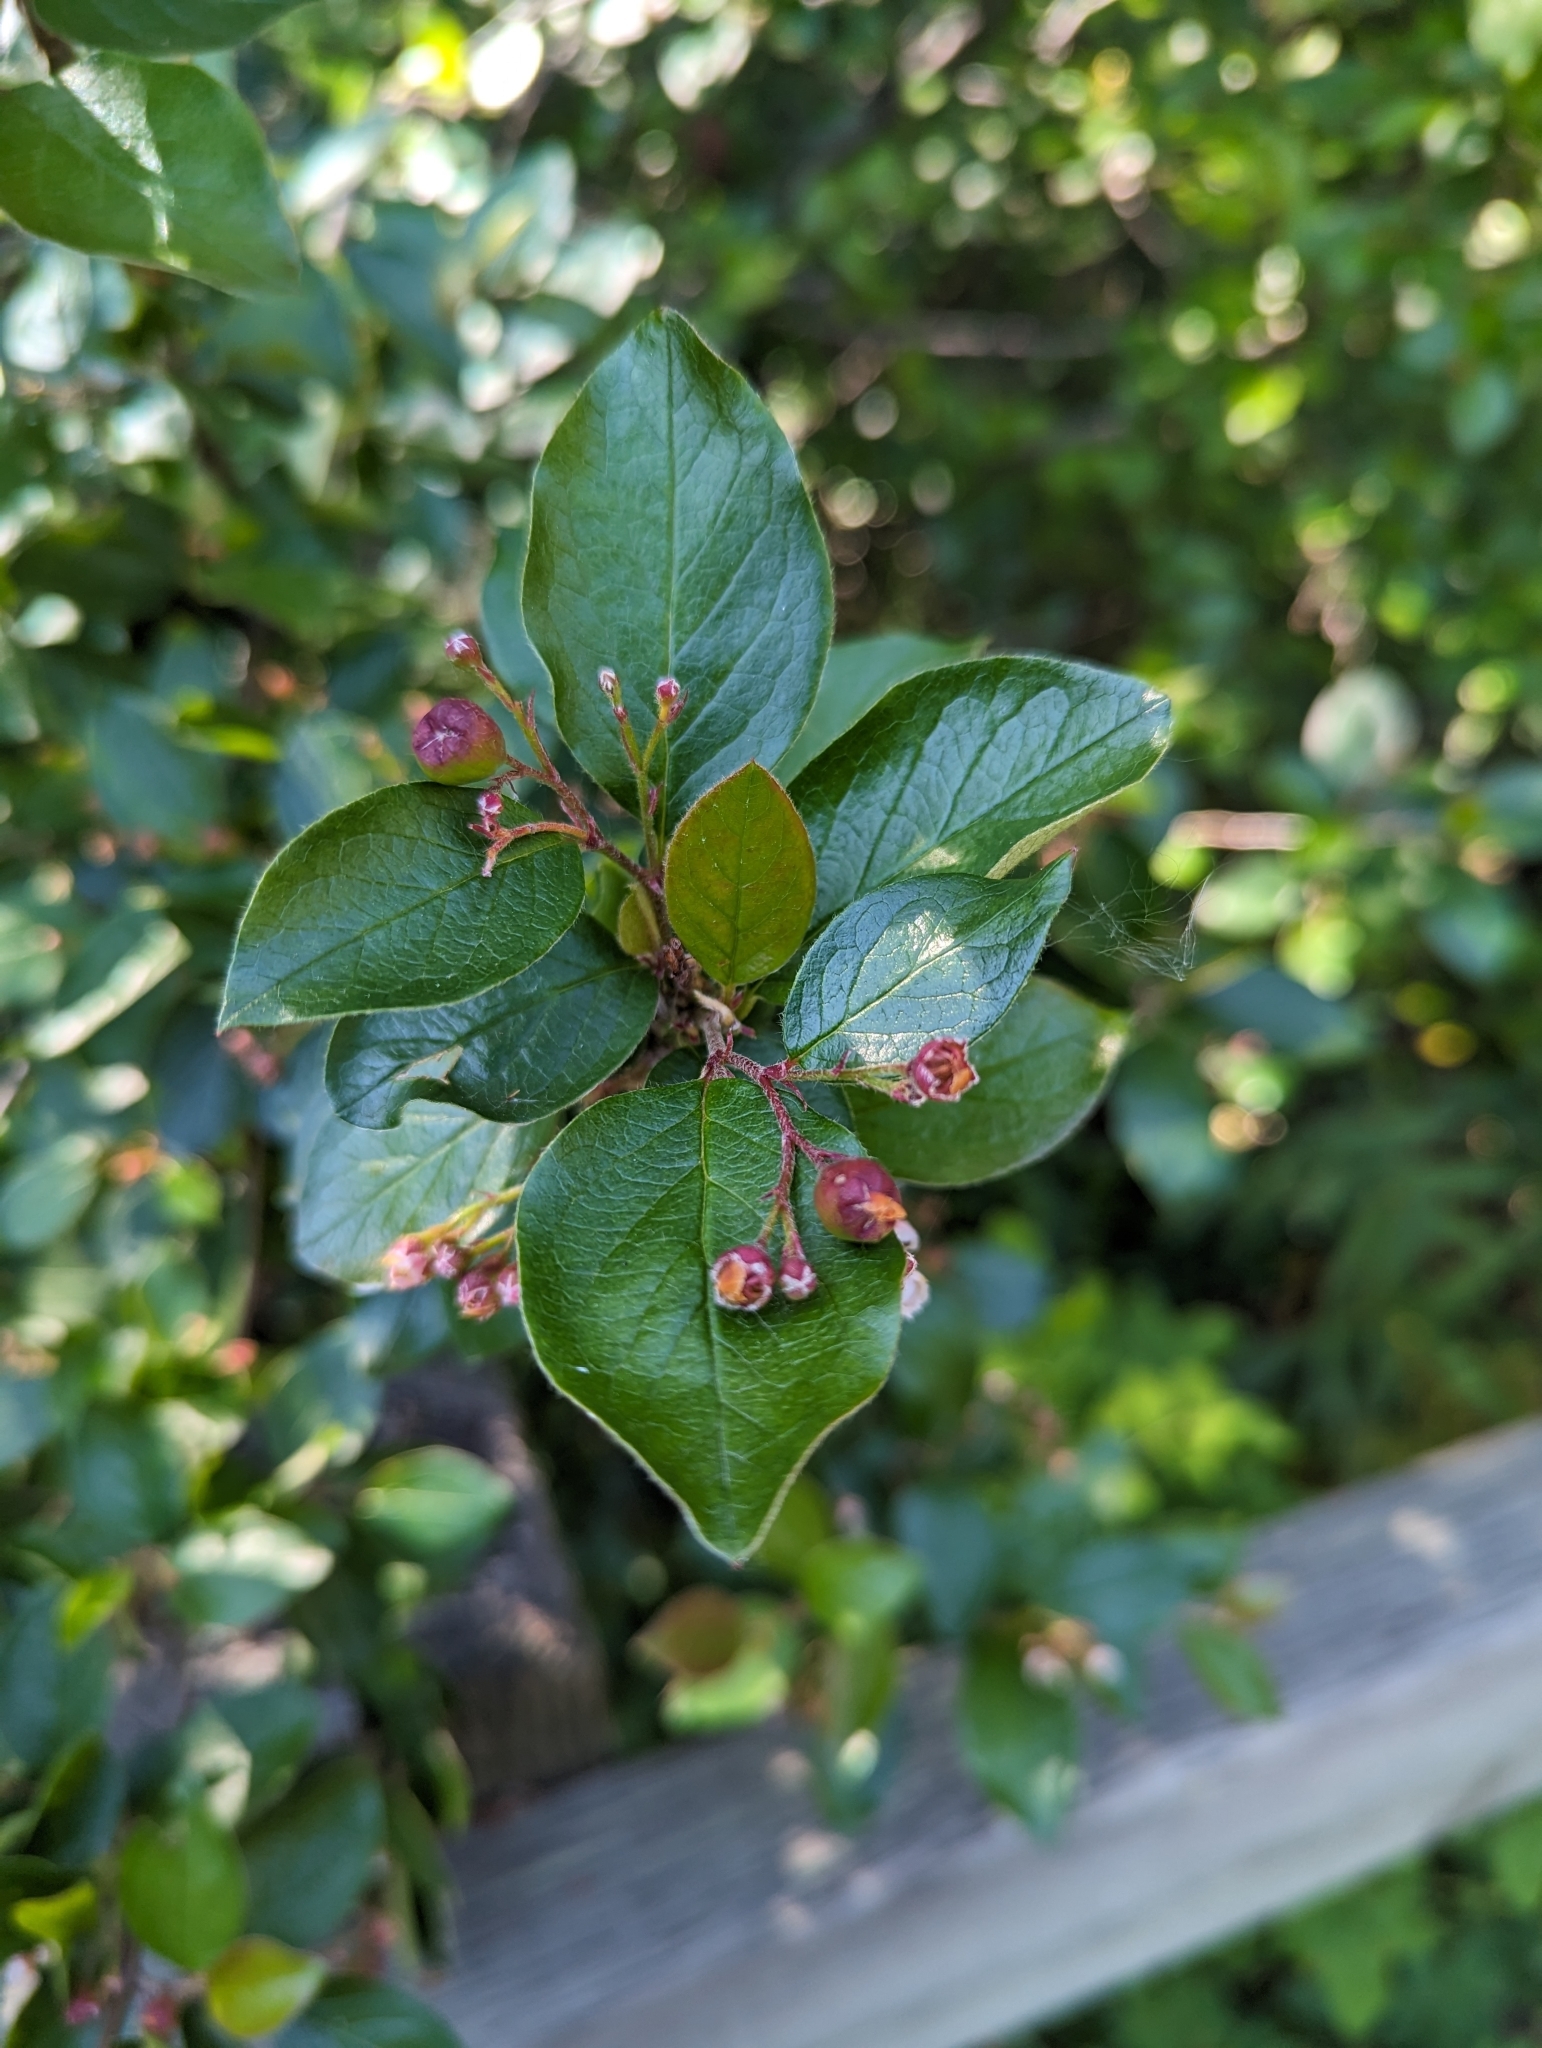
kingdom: Plantae
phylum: Tracheophyta
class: Magnoliopsida
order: Rosales
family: Rosaceae
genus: Cotoneaster
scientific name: Cotoneaster acutifolius
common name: Peking cotoneaster
